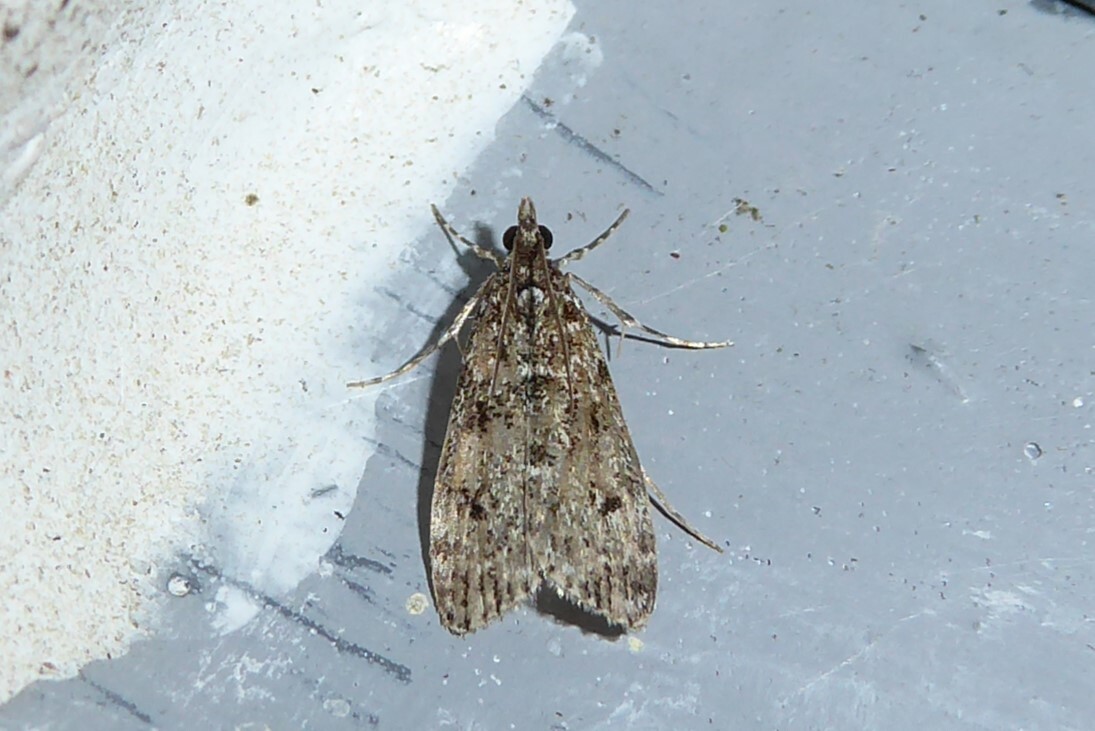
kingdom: Animalia
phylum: Arthropoda
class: Insecta
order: Lepidoptera
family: Crambidae
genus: Eudonia
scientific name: Eudonia philerga
